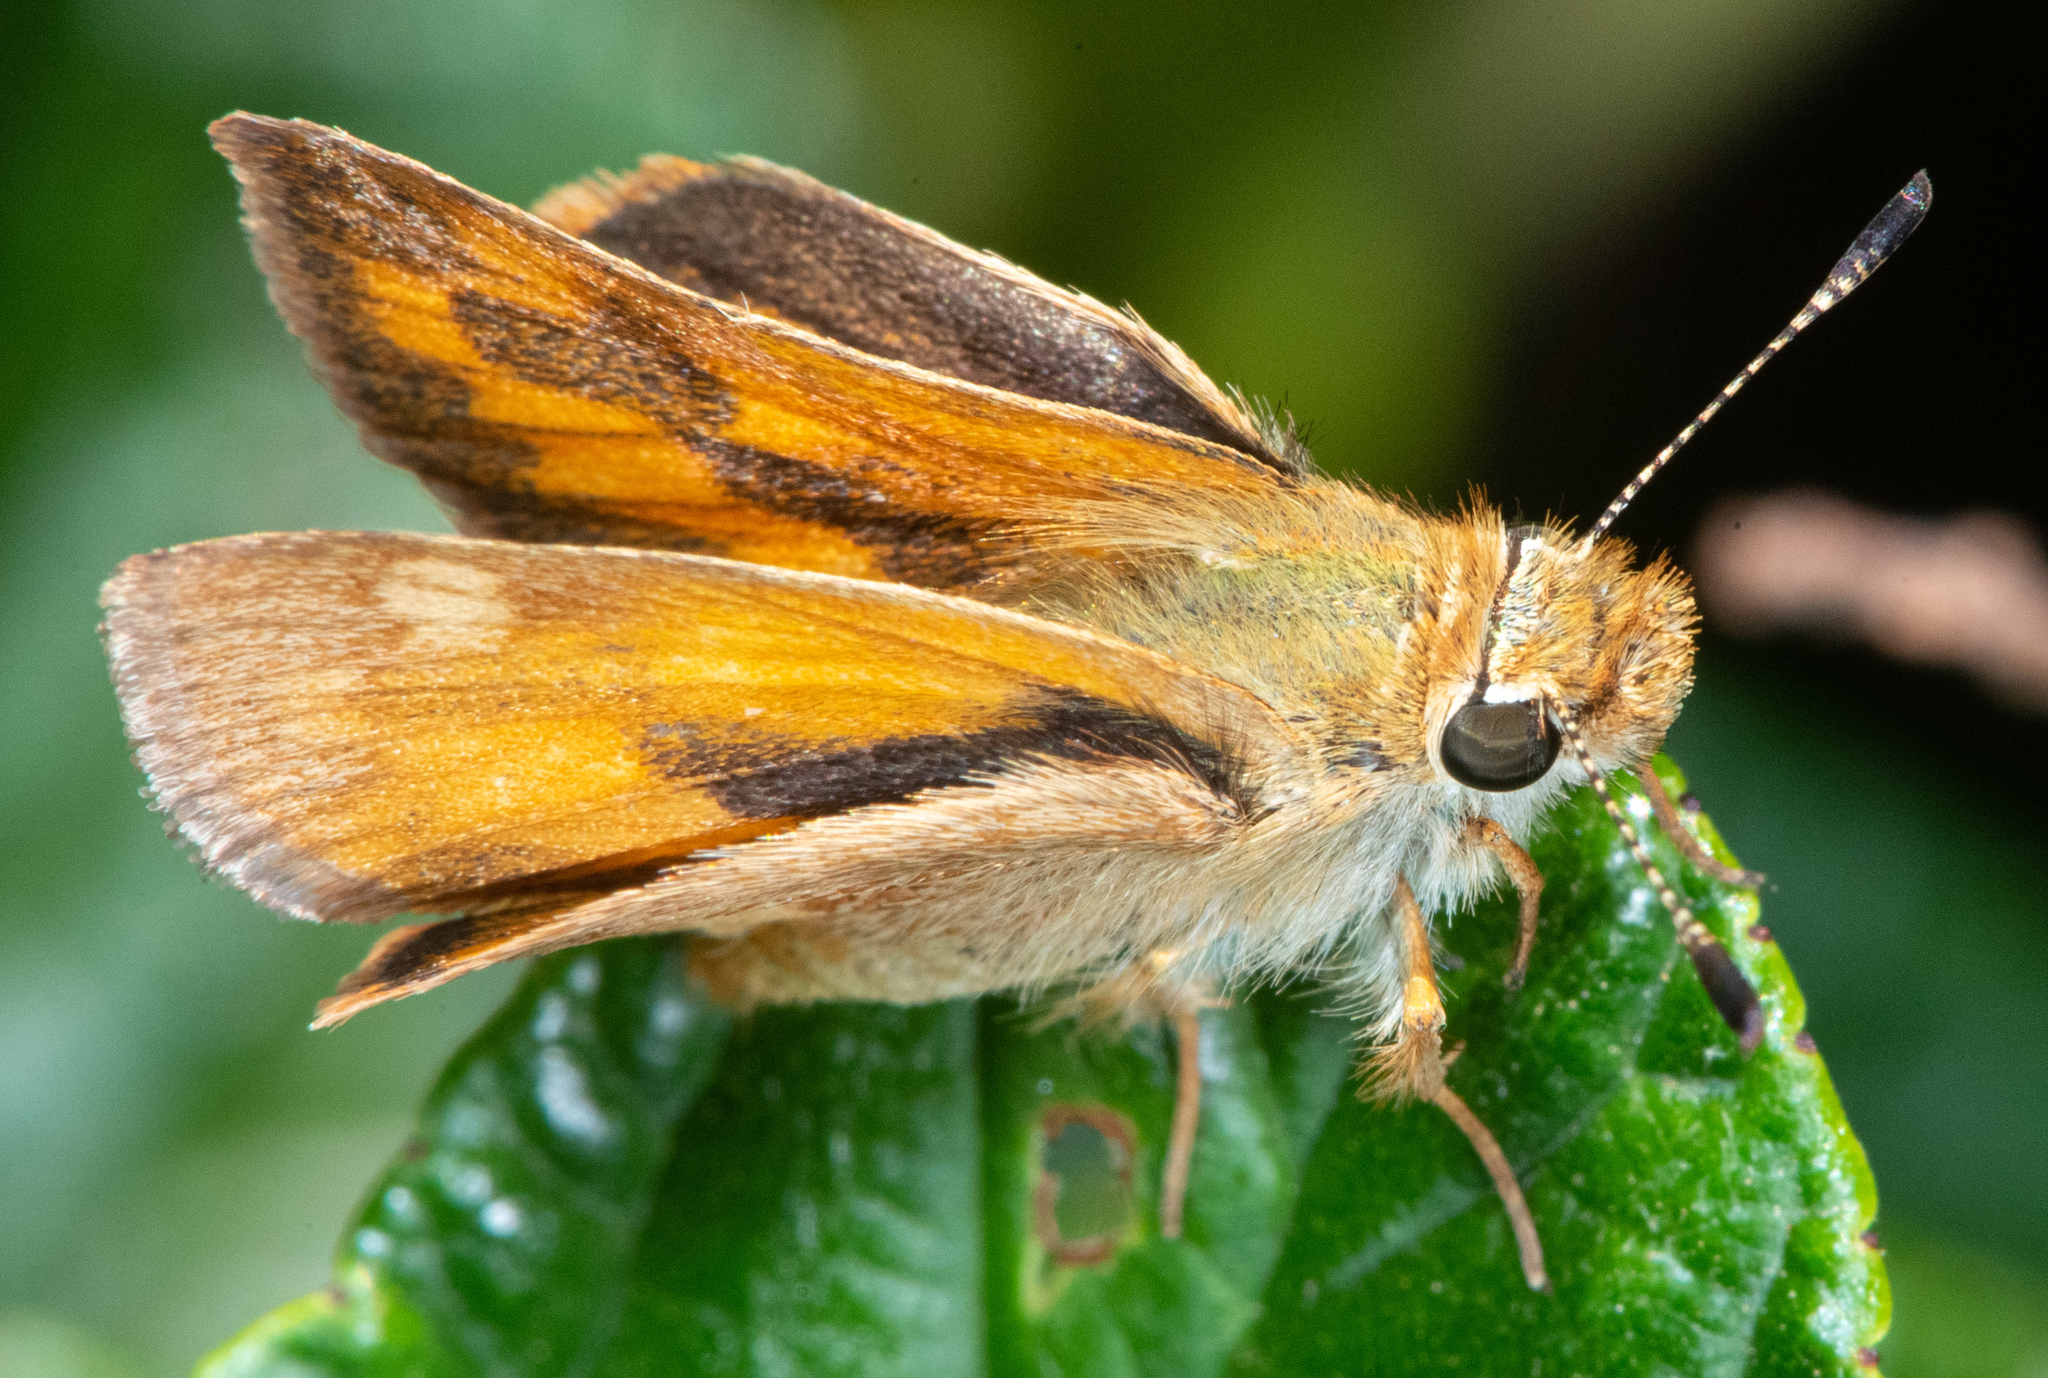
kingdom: Animalia
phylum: Arthropoda
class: Insecta
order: Lepidoptera
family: Hesperiidae
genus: Ochlodes
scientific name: Ochlodes sylvanoides
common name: Woodland skipper
